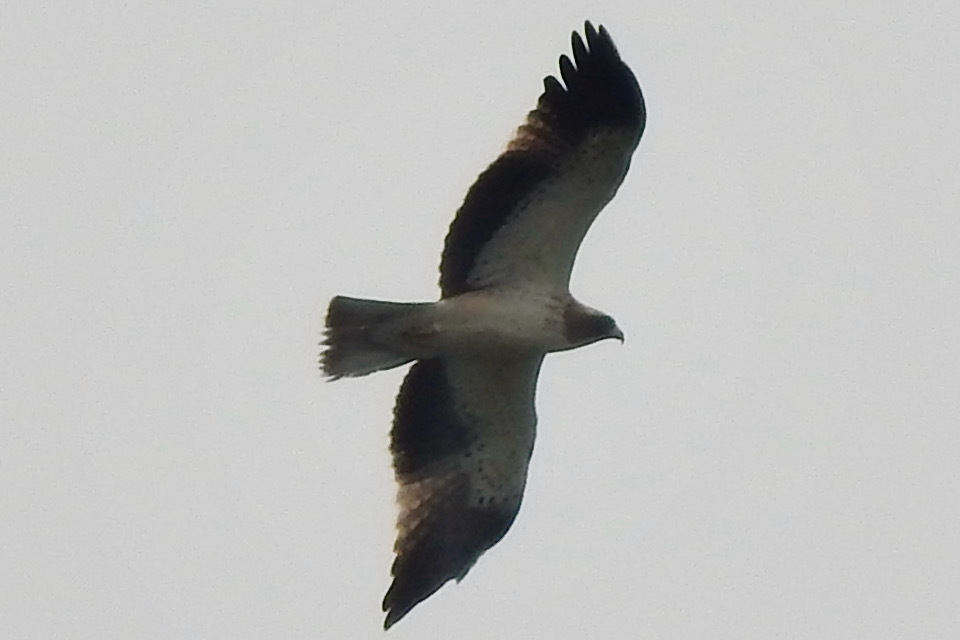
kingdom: Animalia
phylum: Chordata
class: Aves
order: Accipitriformes
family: Accipitridae
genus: Hieraaetus
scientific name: Hieraaetus pennatus
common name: Booted eagle
